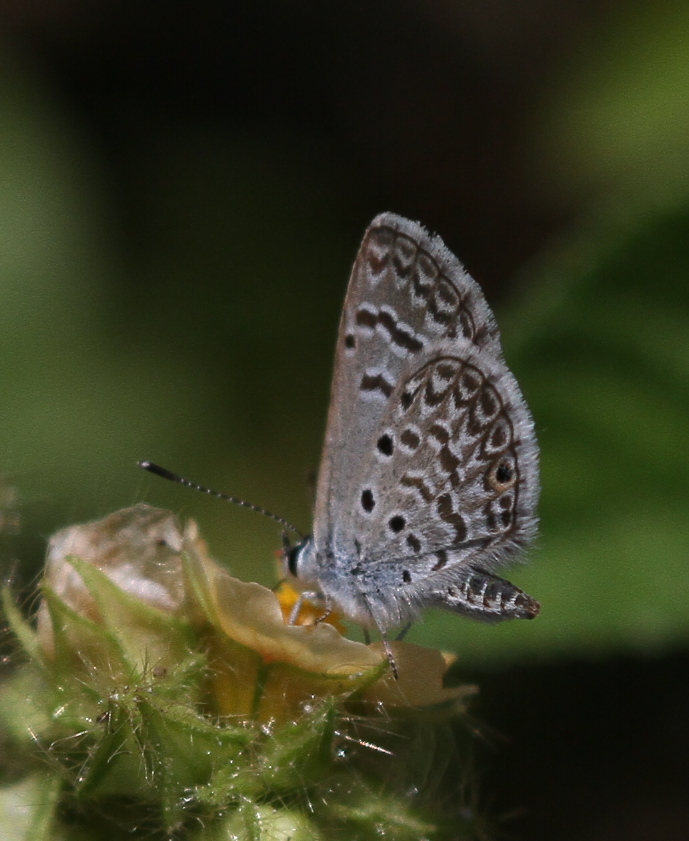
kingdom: Animalia
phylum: Arthropoda
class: Insecta
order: Lepidoptera
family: Lycaenidae
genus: Hemiargus
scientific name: Hemiargus hanno
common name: Common blue
